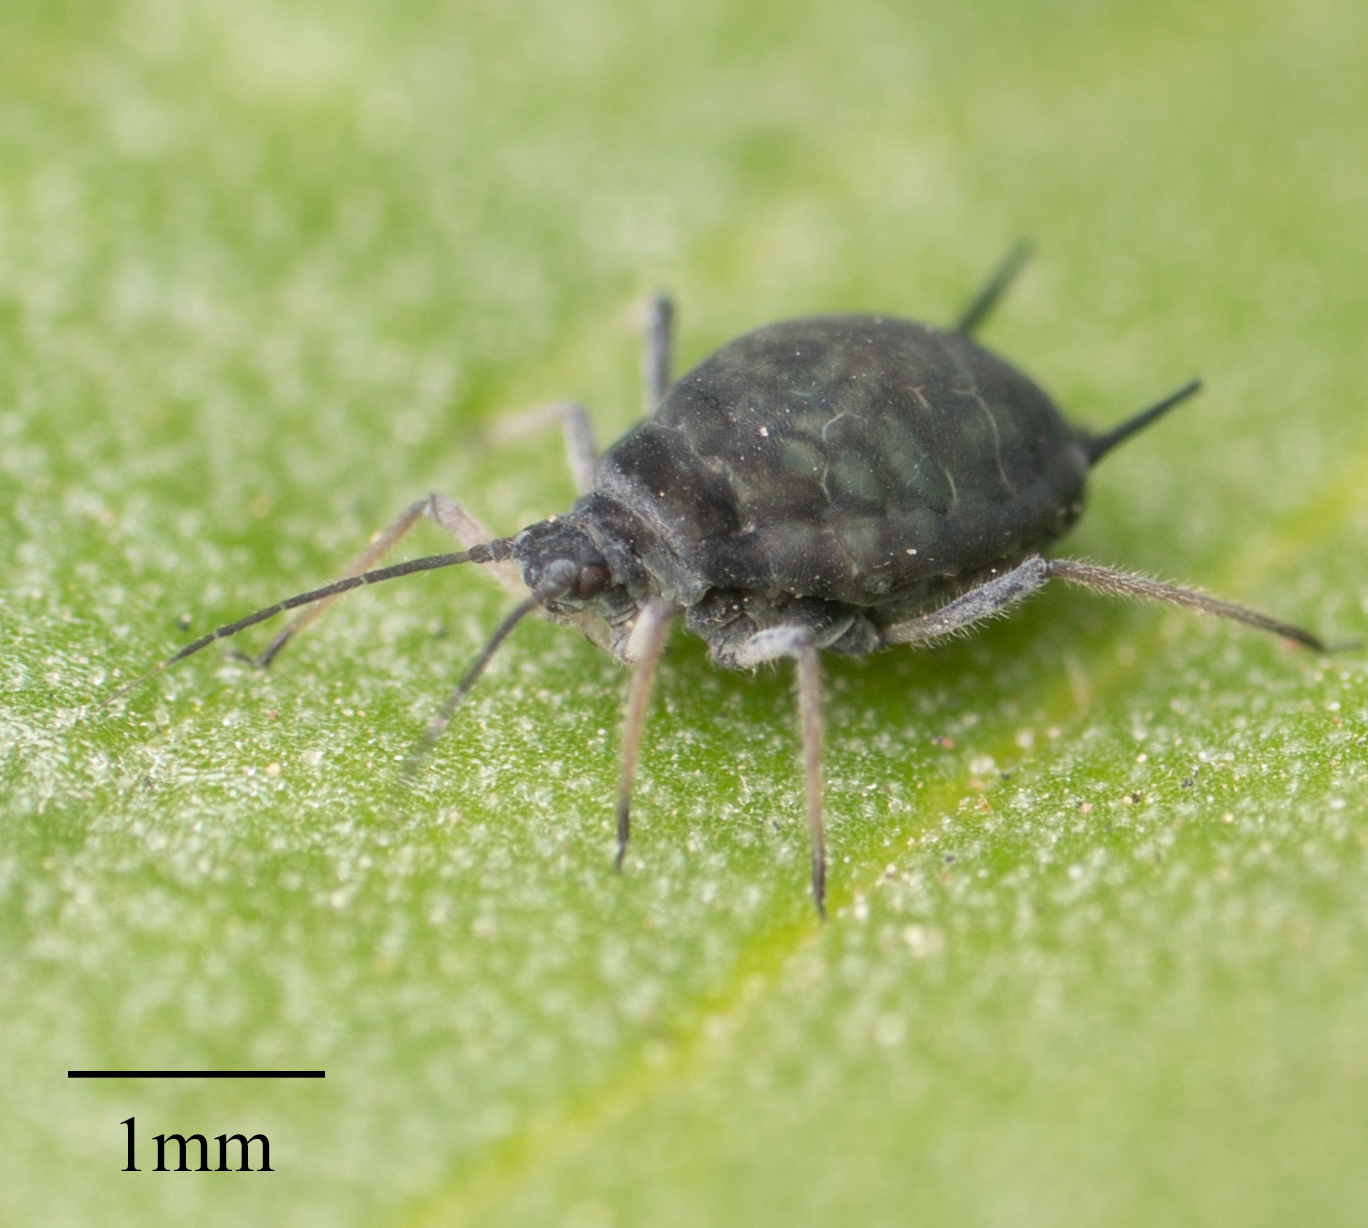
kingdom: Animalia
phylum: Arthropoda
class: Insecta
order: Hemiptera
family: Aphididae
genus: Aphis
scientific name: Aphis sambuci
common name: Elder aphid
